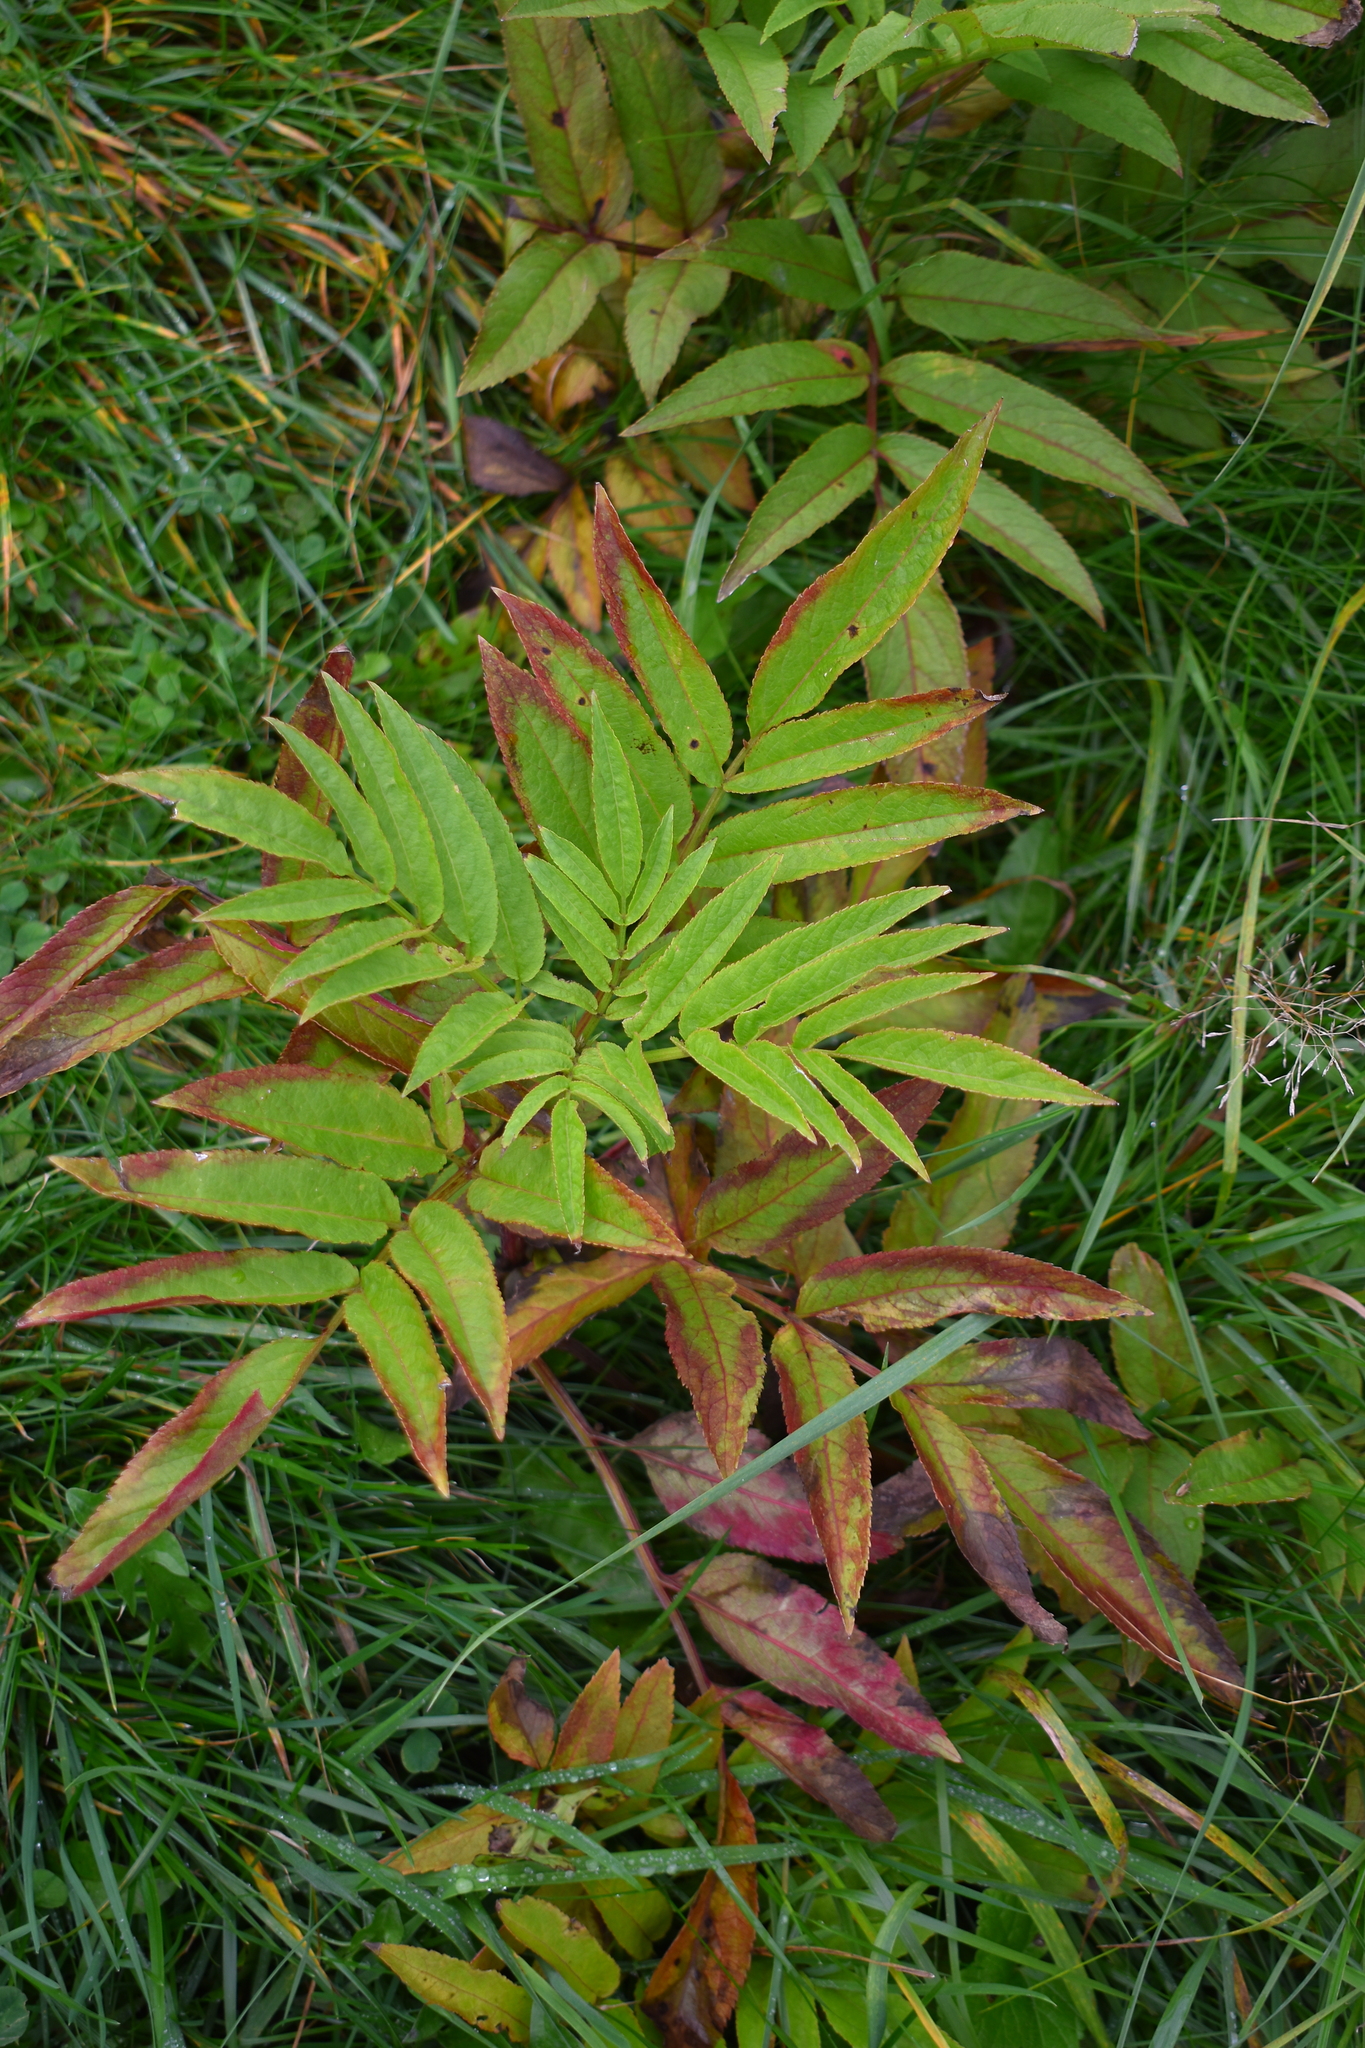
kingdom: Plantae
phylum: Tracheophyta
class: Magnoliopsida
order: Dipsacales
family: Viburnaceae
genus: Sambucus
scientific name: Sambucus ebulus
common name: Dwarf elder
